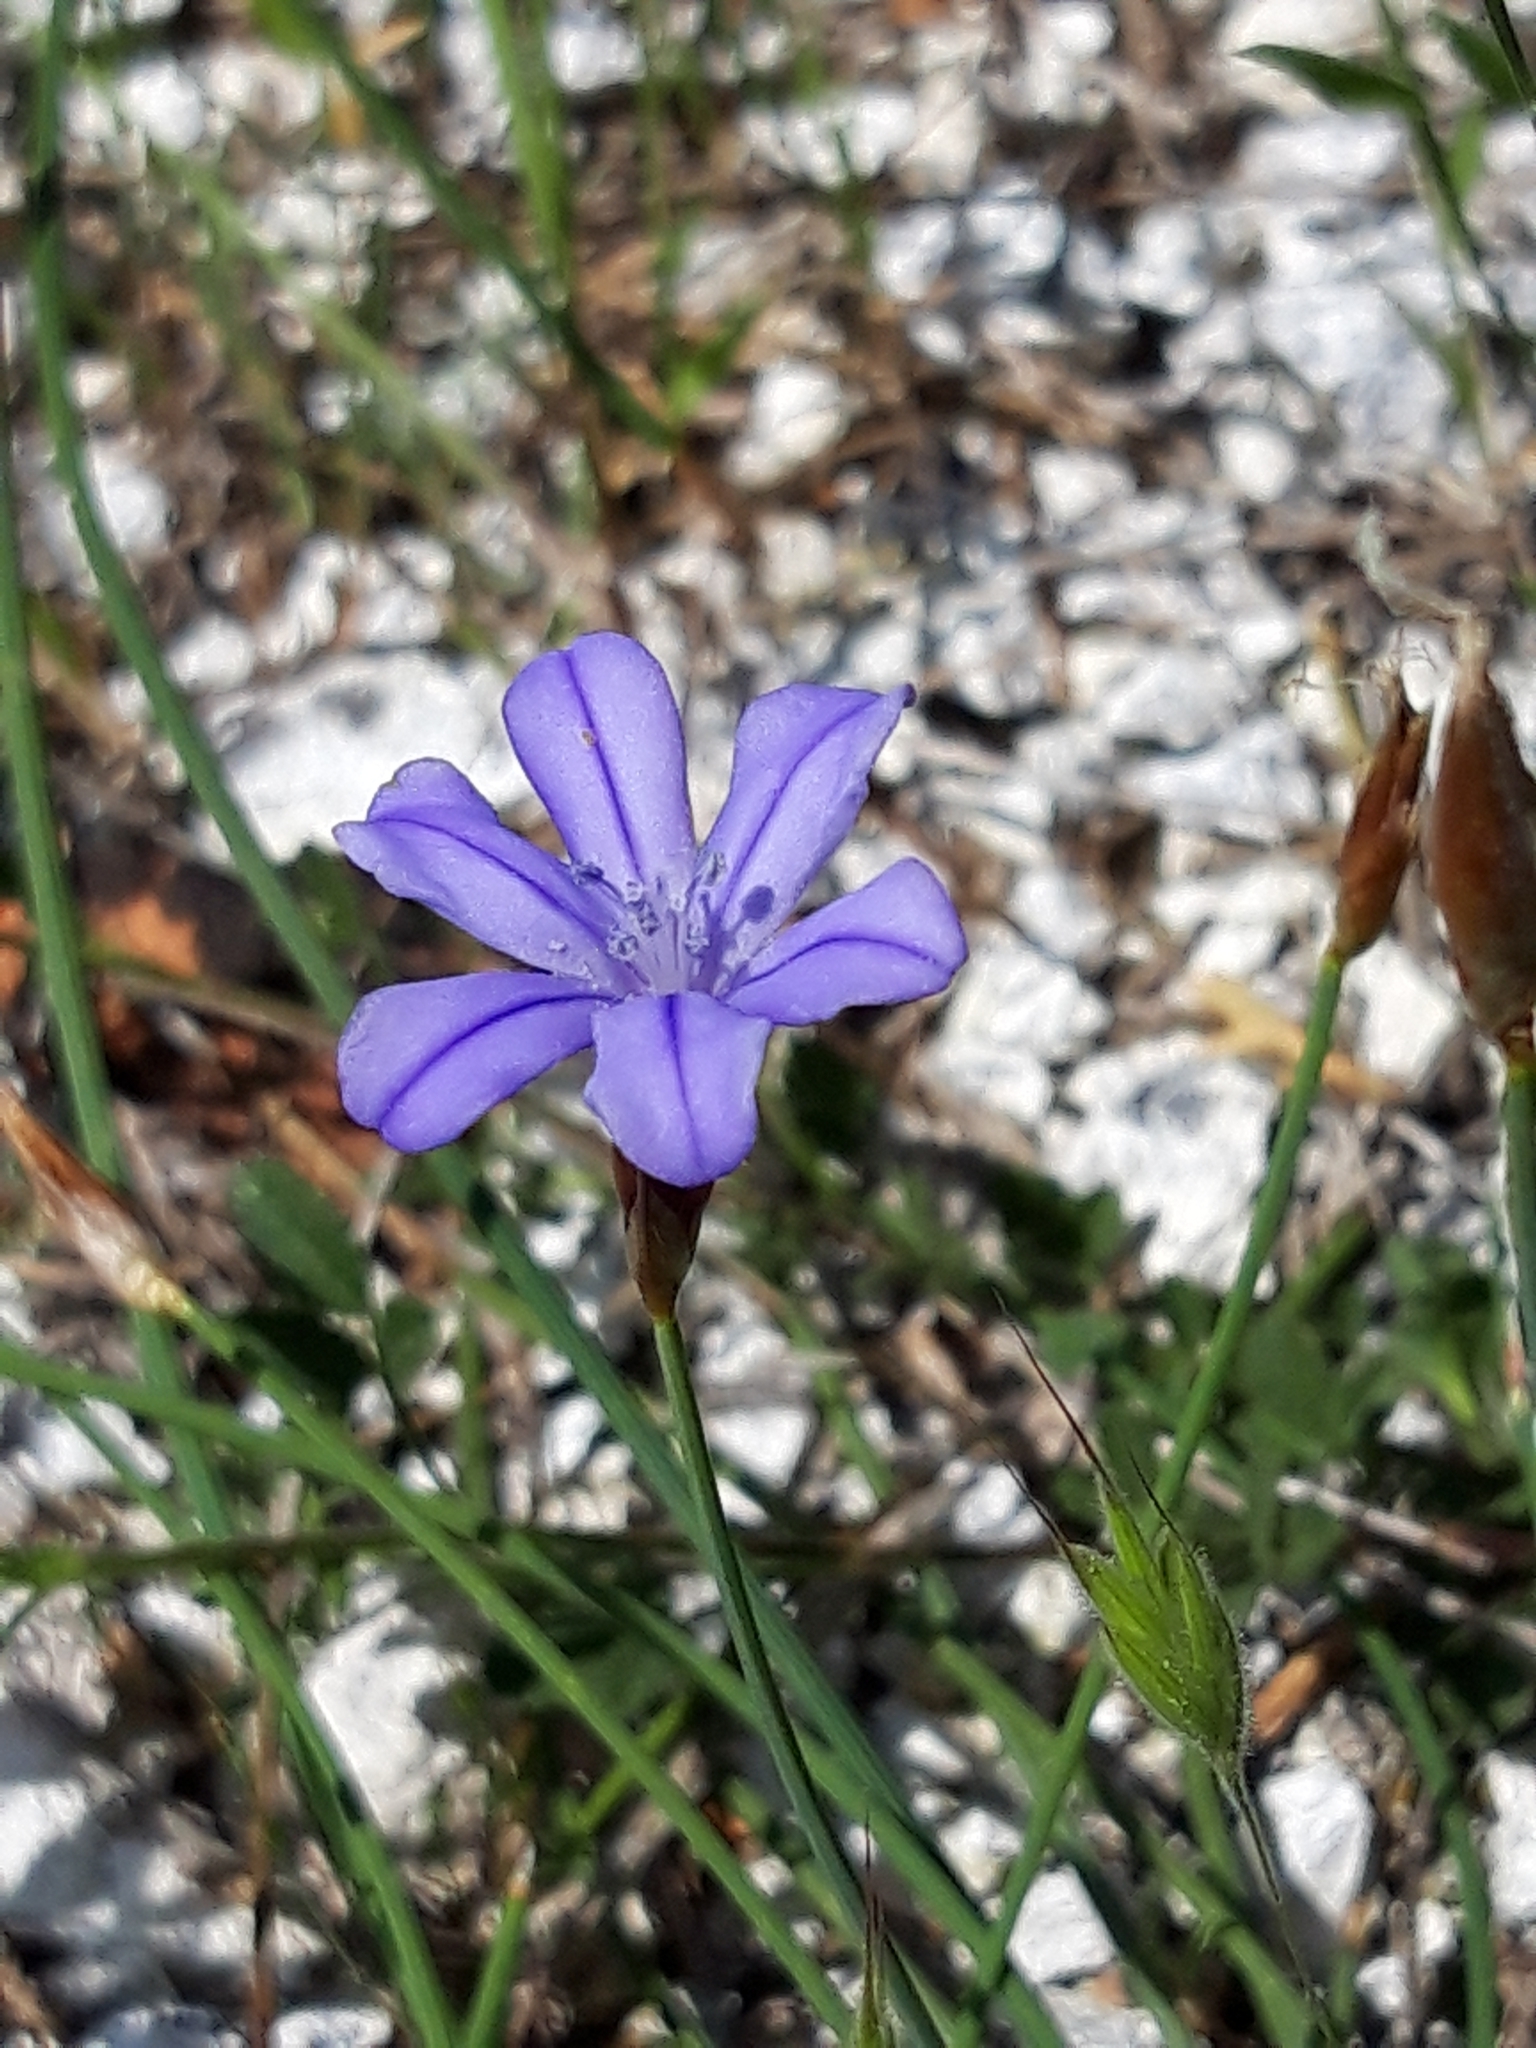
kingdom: Plantae
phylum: Tracheophyta
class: Liliopsida
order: Asparagales
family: Asparagaceae
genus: Aphyllanthes
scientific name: Aphyllanthes monspeliensis
